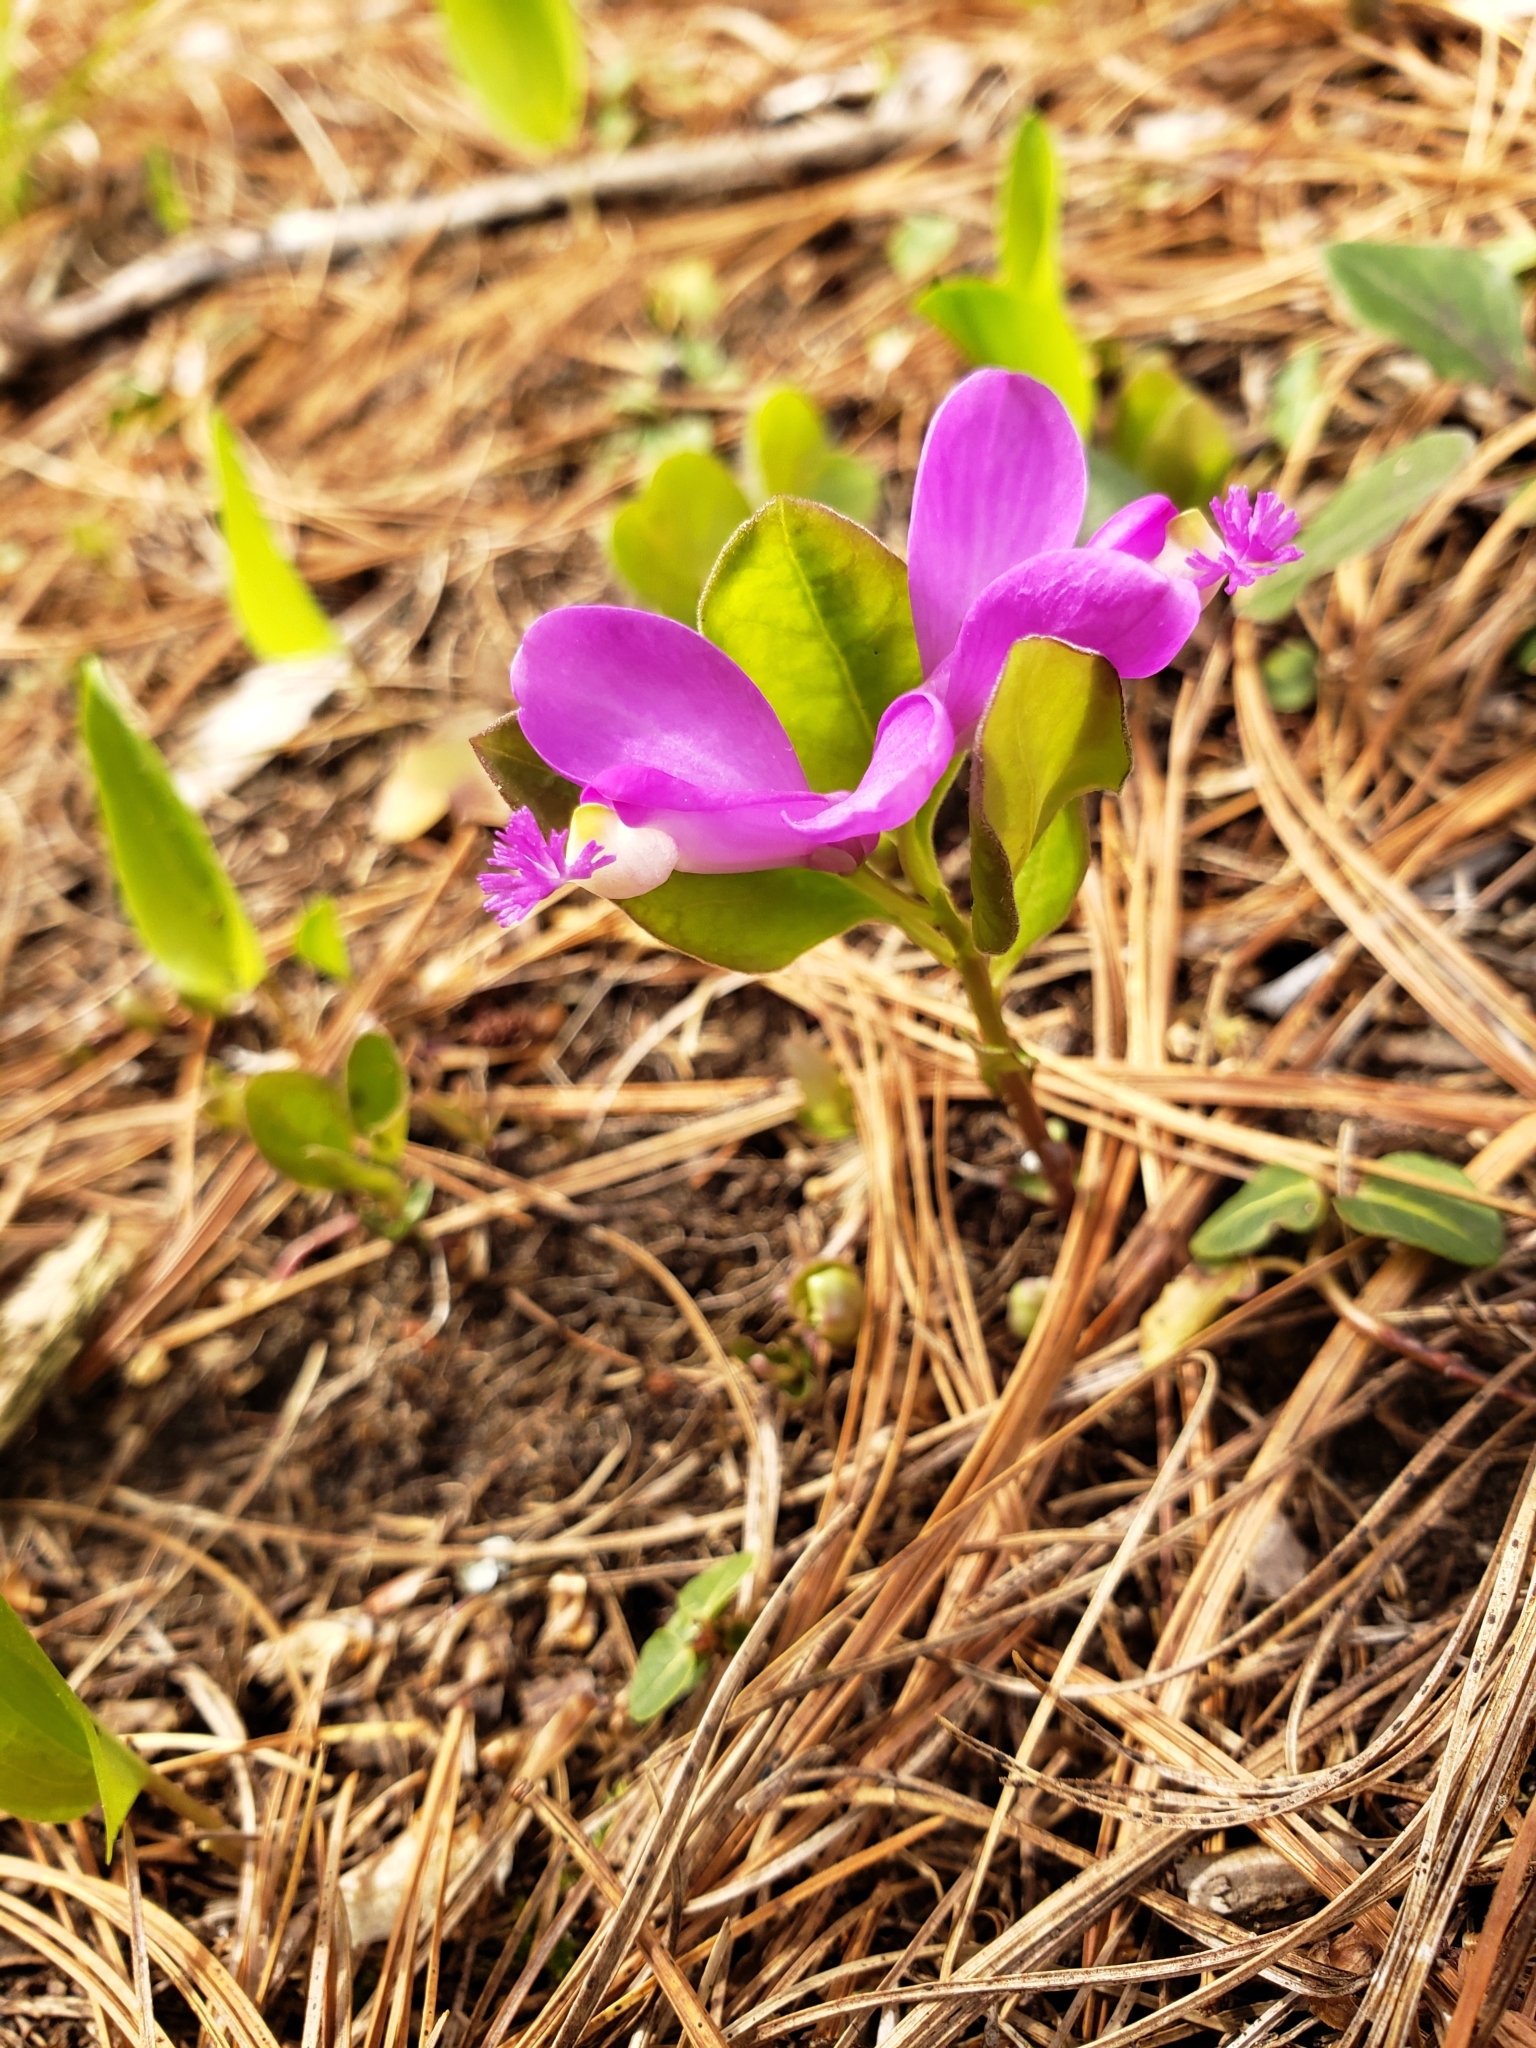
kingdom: Plantae
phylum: Tracheophyta
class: Magnoliopsida
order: Fabales
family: Polygalaceae
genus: Polygaloides
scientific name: Polygaloides paucifolia
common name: Bird-on-the-wing
